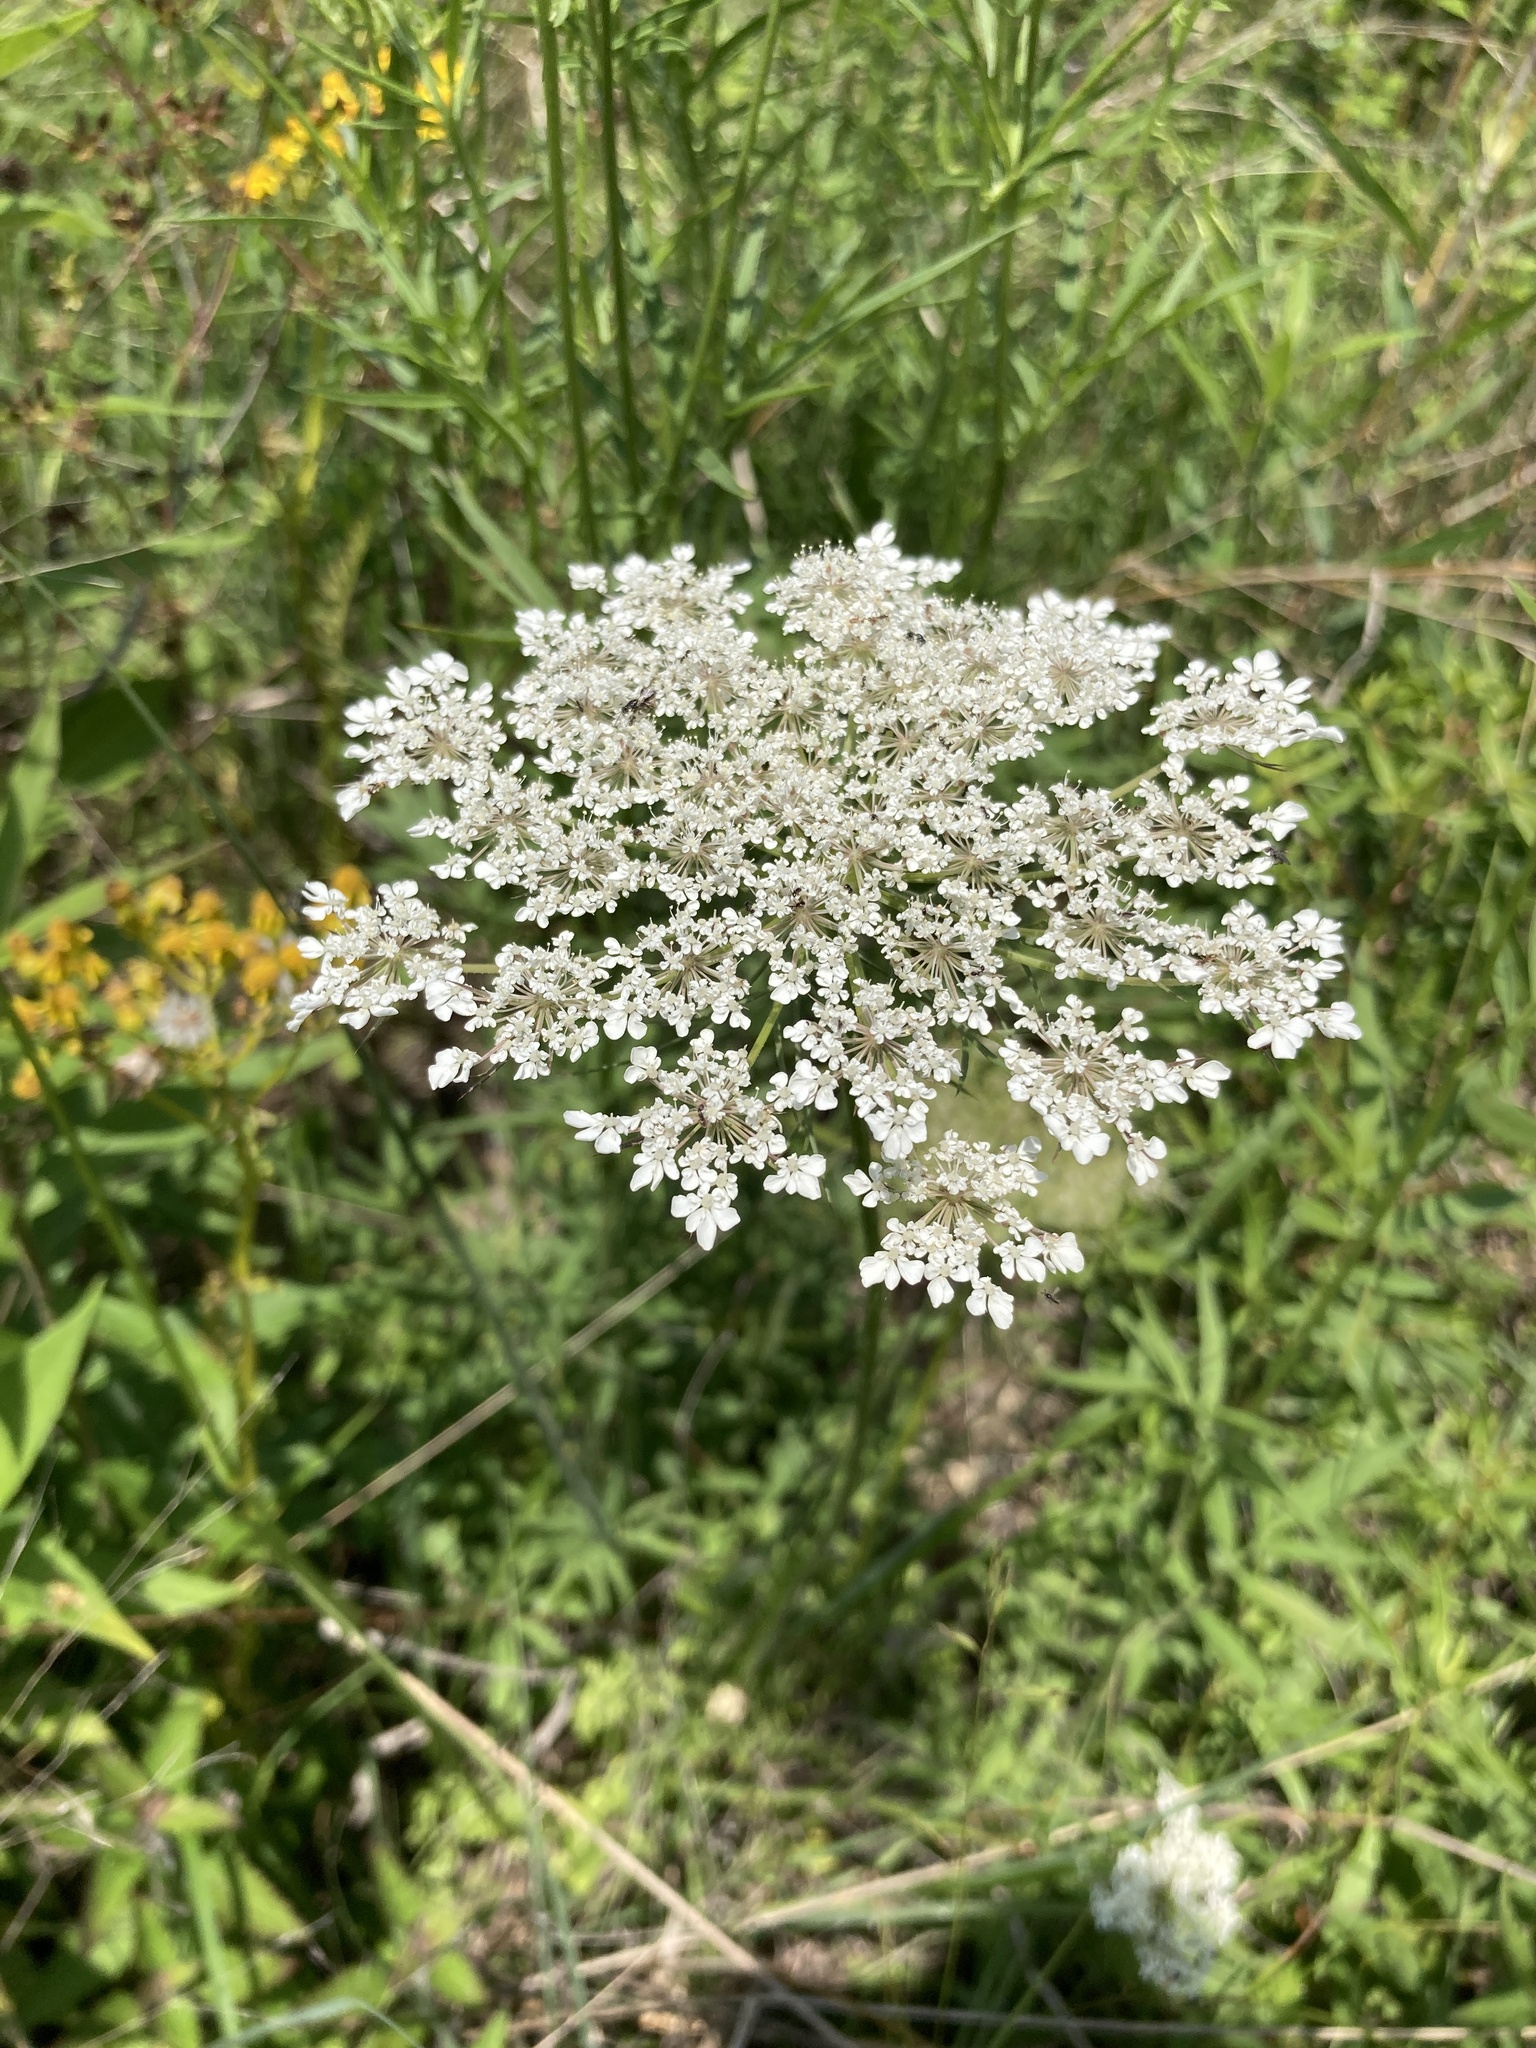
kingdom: Plantae
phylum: Tracheophyta
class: Magnoliopsida
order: Apiales
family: Apiaceae
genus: Daucus
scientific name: Daucus carota
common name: Wild carrot
